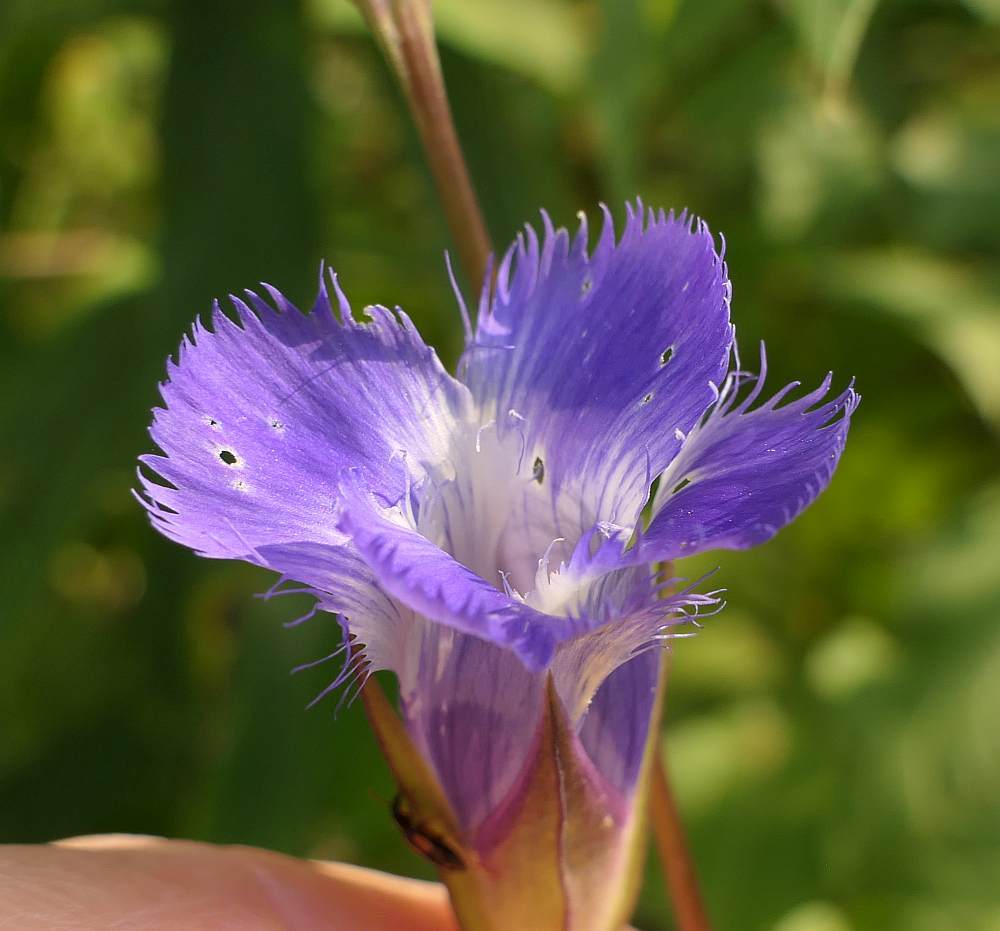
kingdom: Plantae
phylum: Tracheophyta
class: Magnoliopsida
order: Gentianales
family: Gentianaceae
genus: Gentianopsis
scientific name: Gentianopsis crinita
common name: Fringed-gentian
